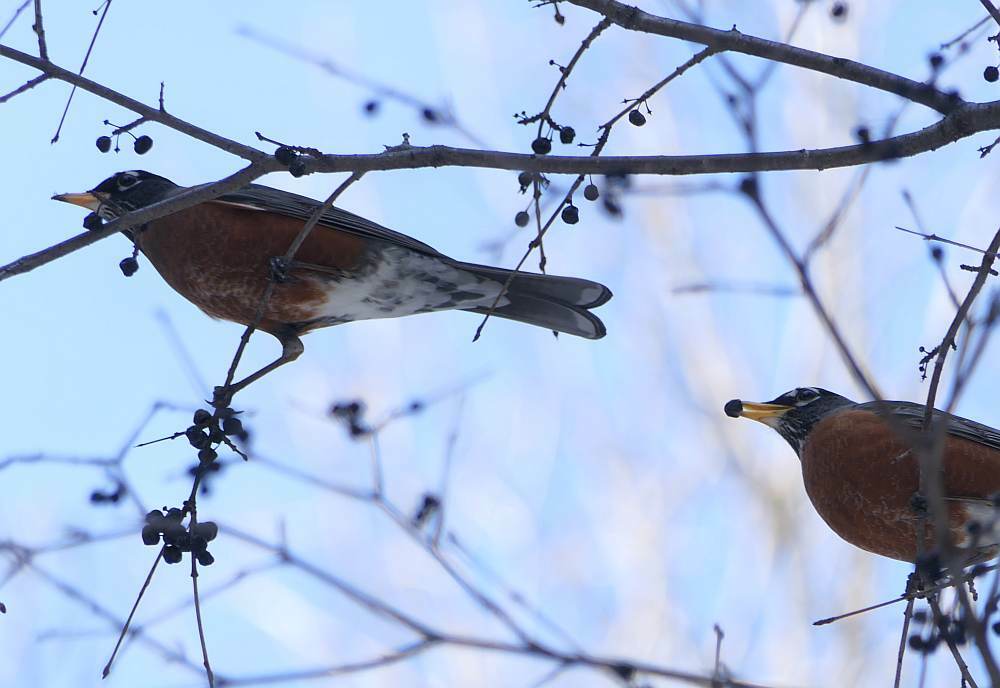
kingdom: Animalia
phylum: Chordata
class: Aves
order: Passeriformes
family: Turdidae
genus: Turdus
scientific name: Turdus migratorius
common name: American robin
